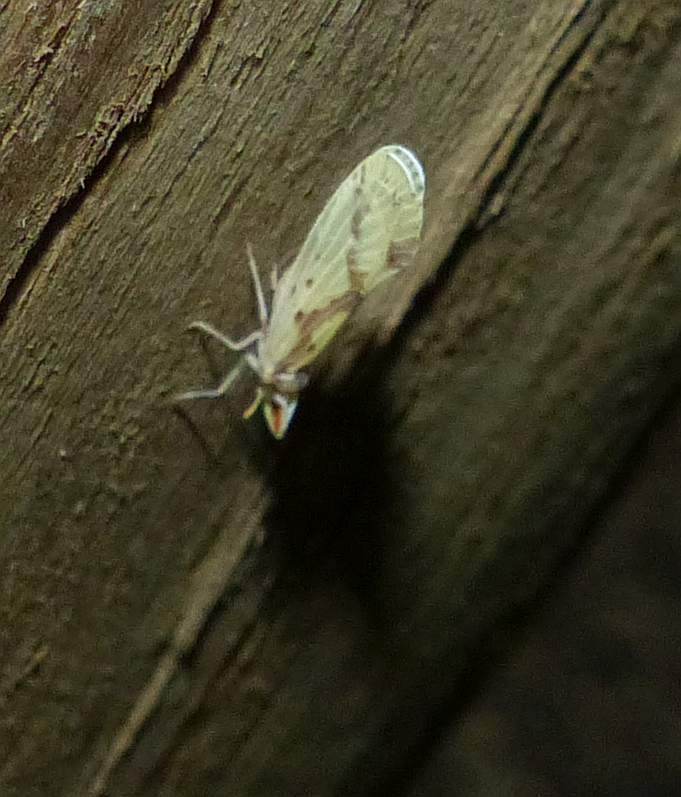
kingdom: Animalia
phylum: Arthropoda
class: Insecta
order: Hemiptera
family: Derbidae
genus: Otiocerus
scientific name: Otiocerus wolfii
